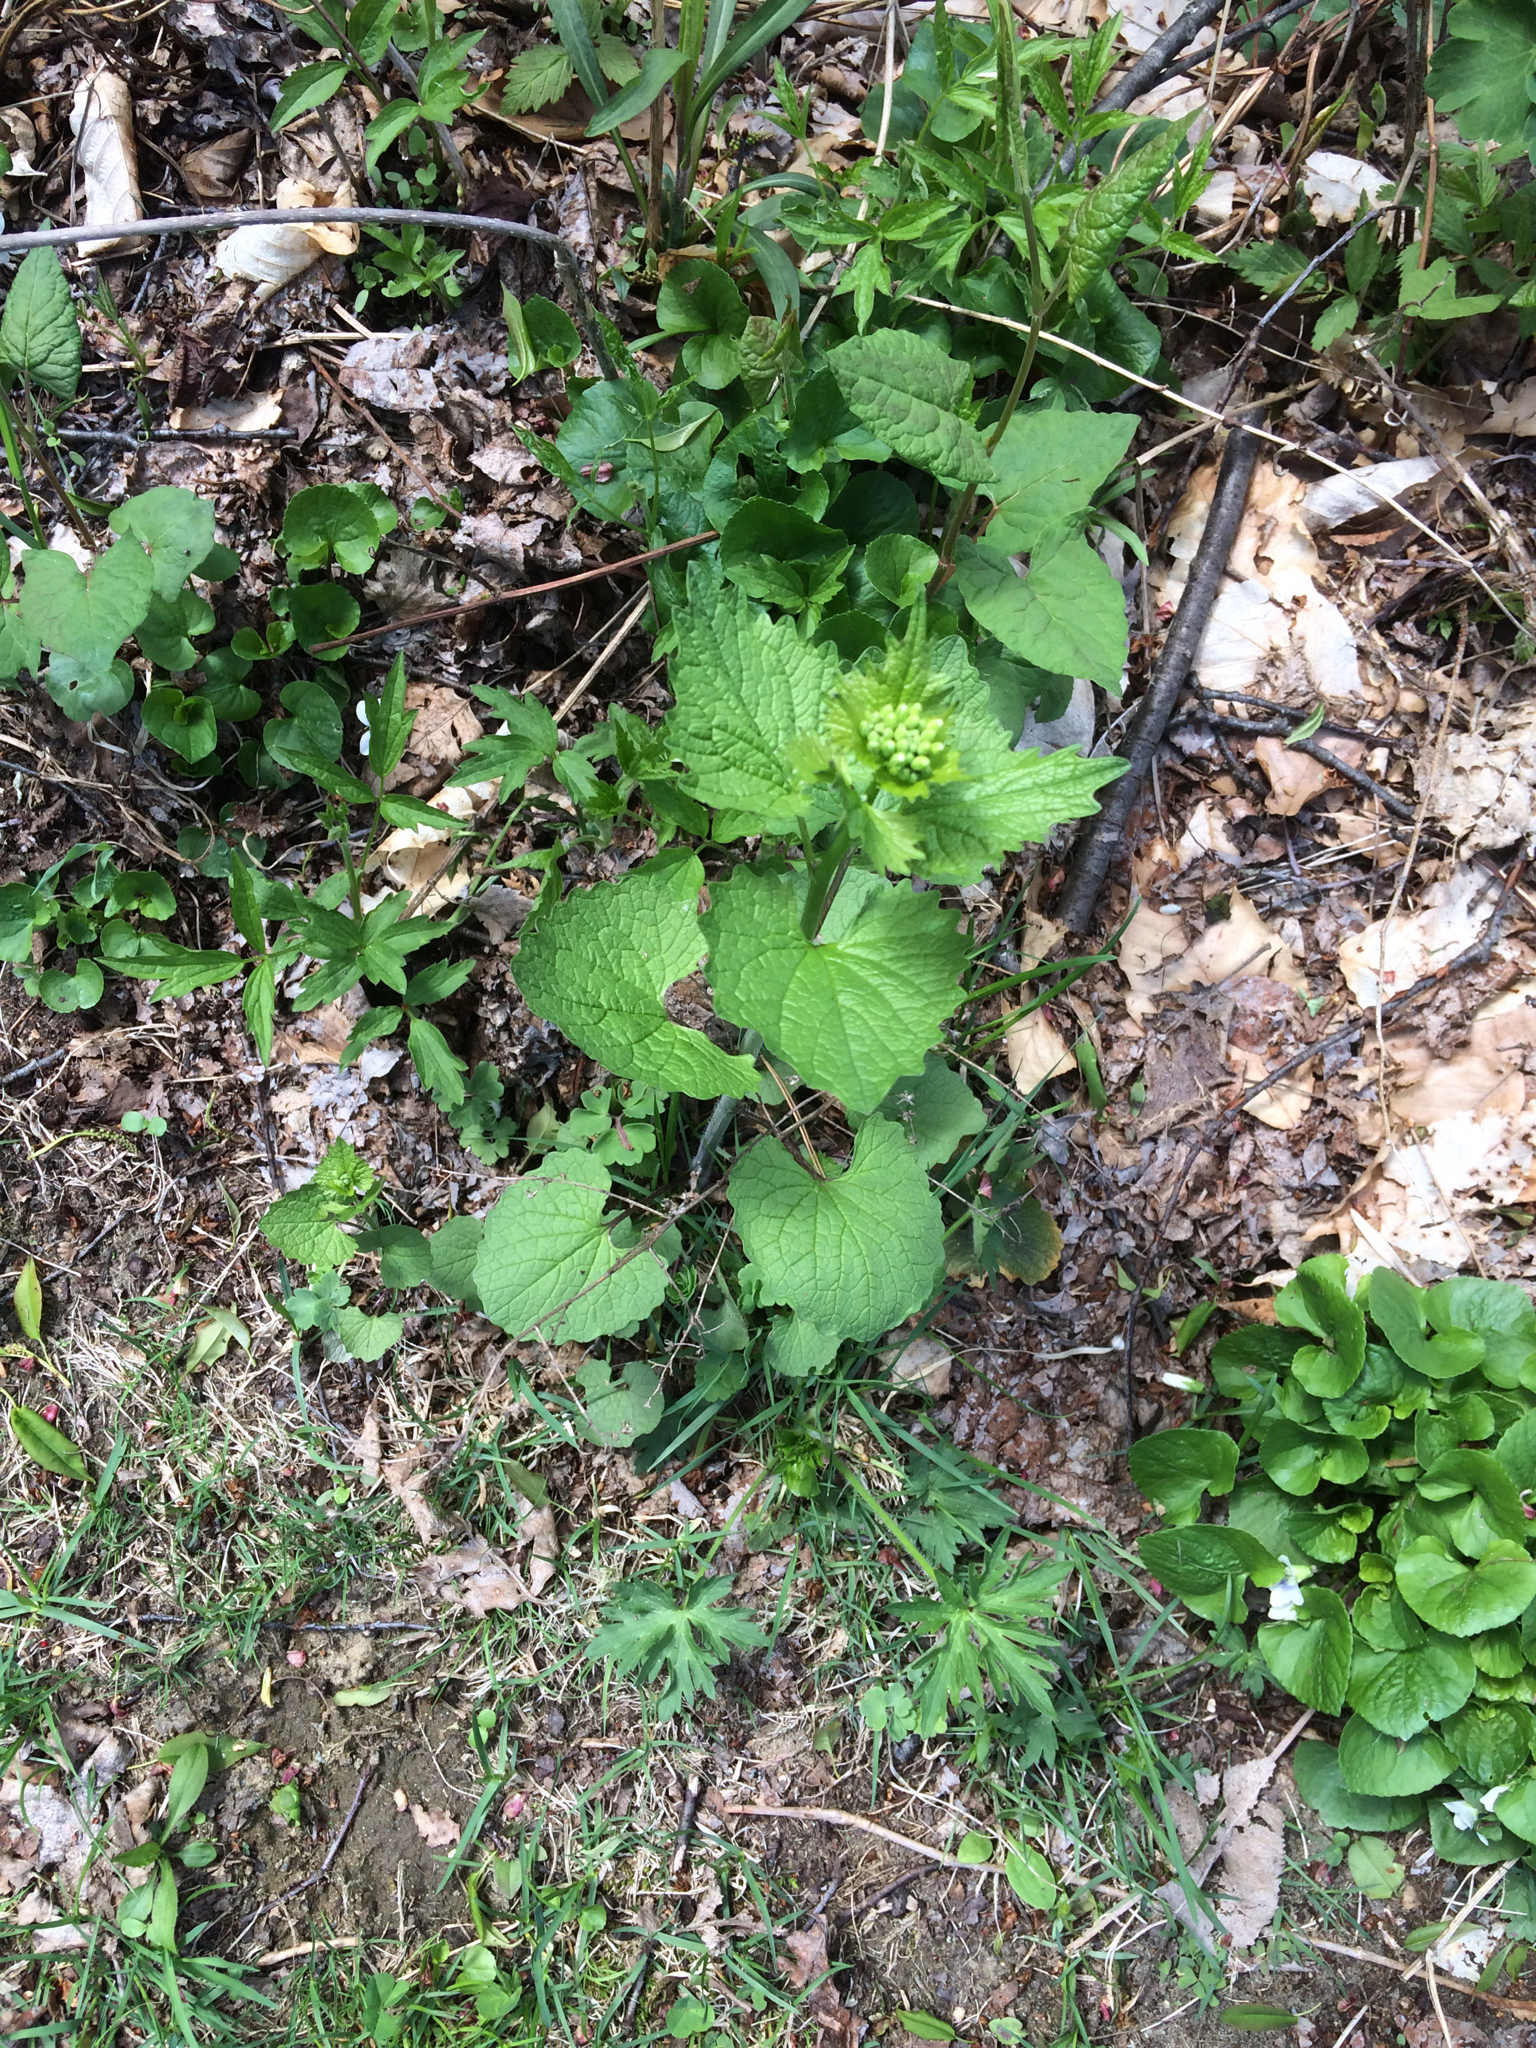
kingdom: Plantae
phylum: Tracheophyta
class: Magnoliopsida
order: Brassicales
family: Brassicaceae
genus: Alliaria
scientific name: Alliaria petiolata
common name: Garlic mustard
